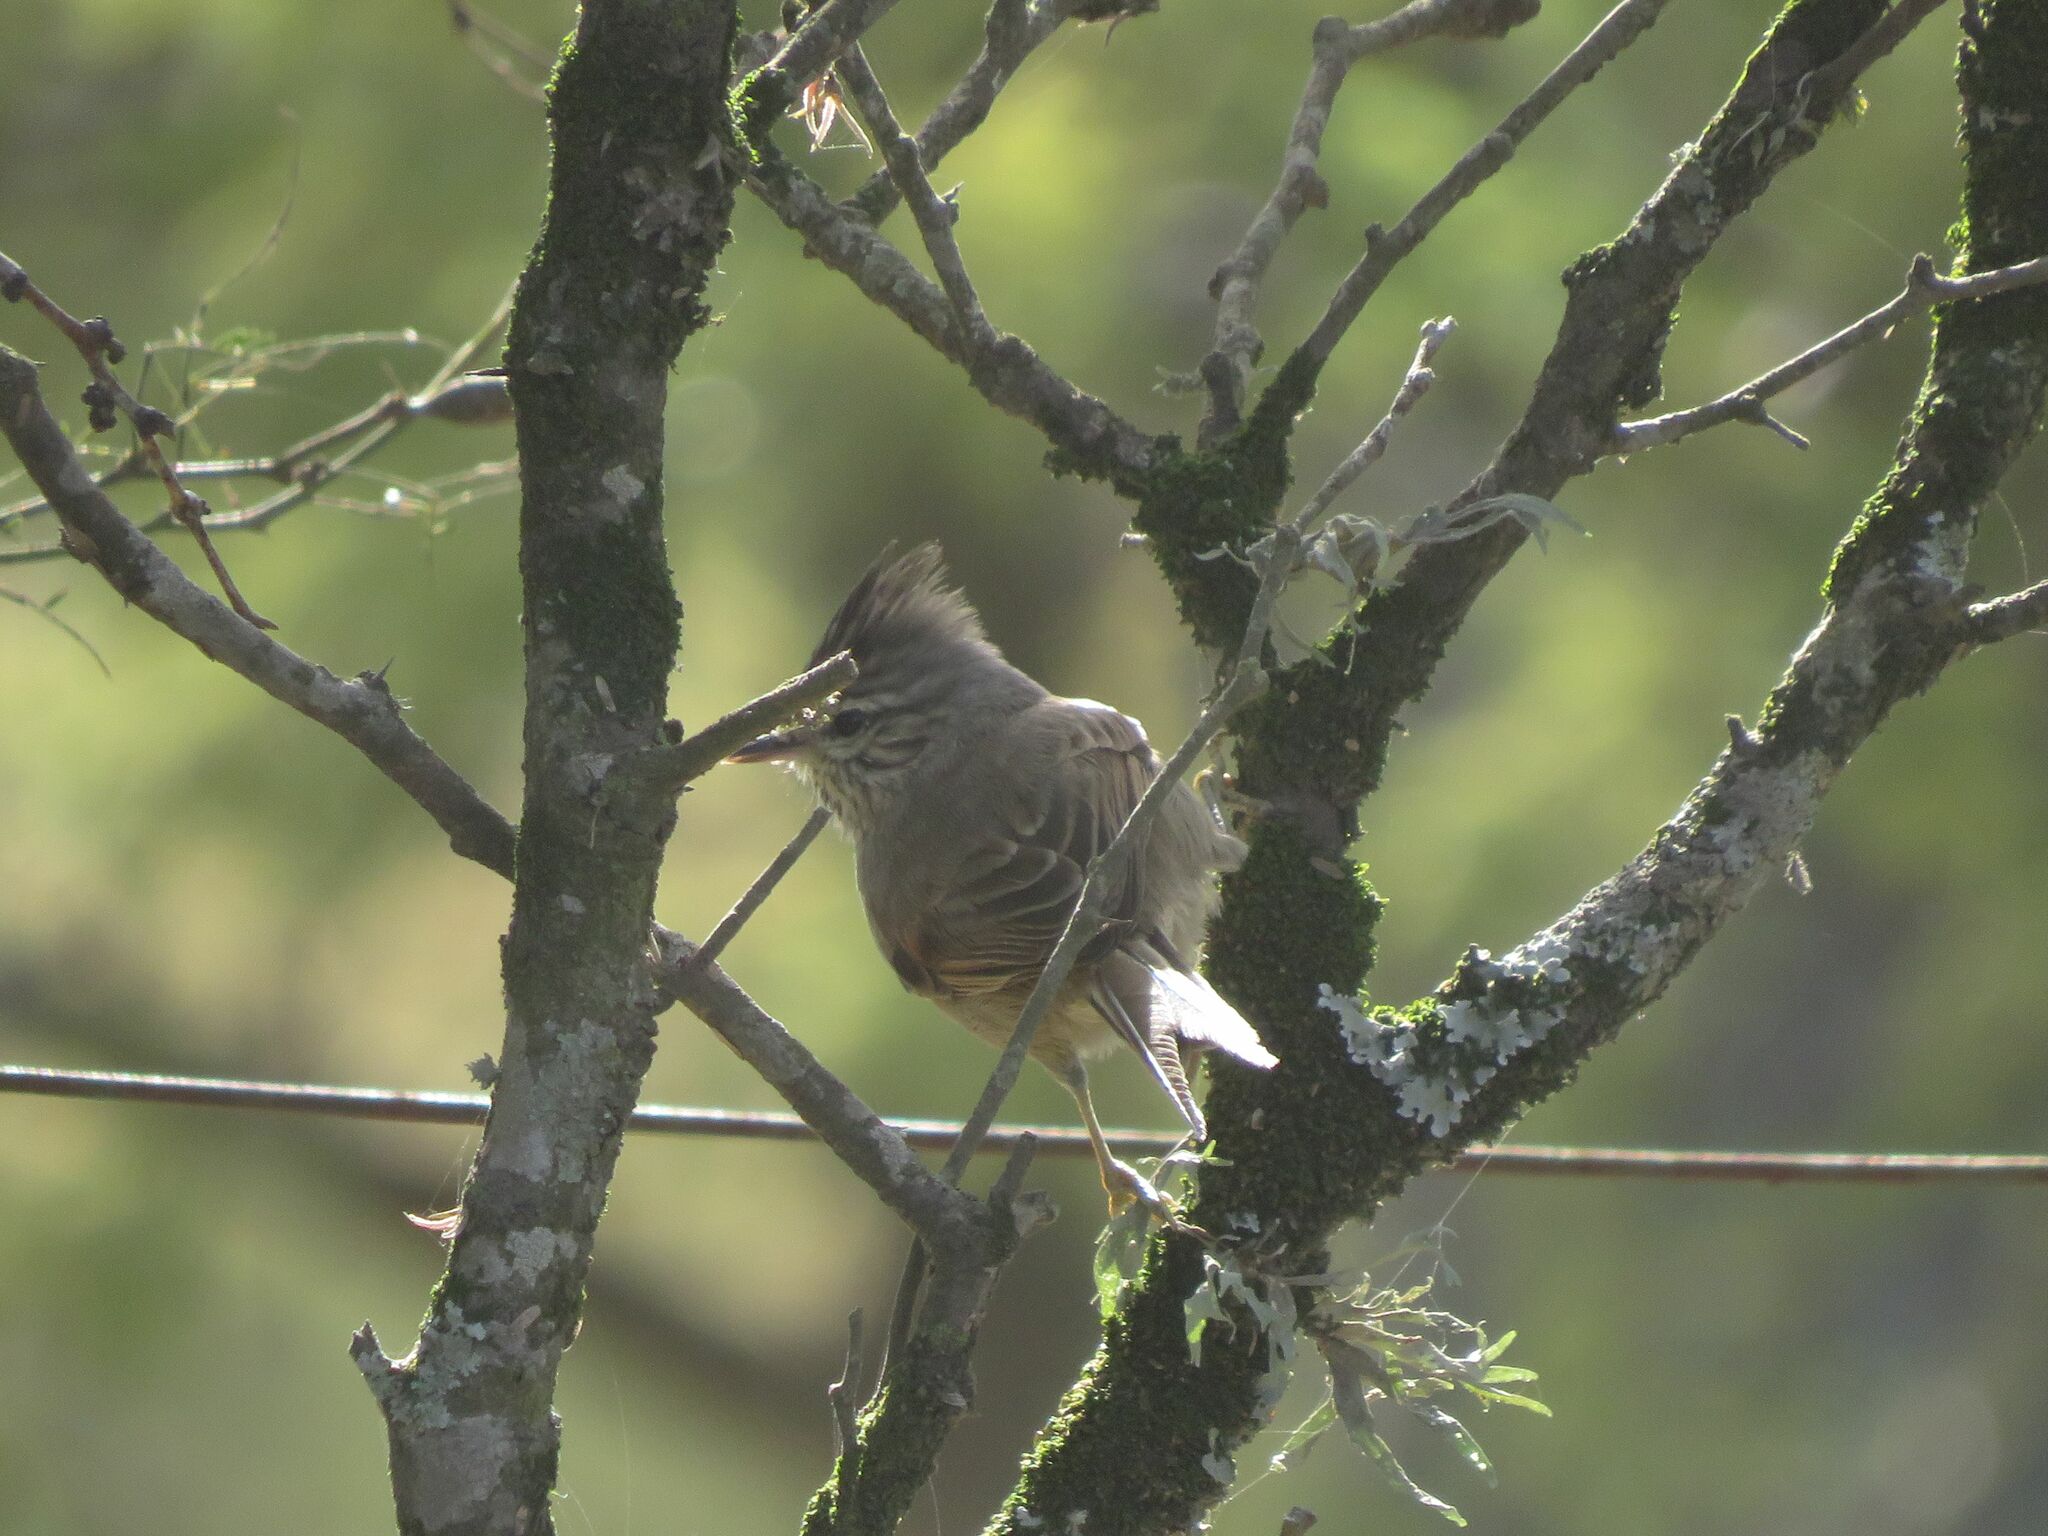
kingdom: Animalia
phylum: Chordata
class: Aves
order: Passeriformes
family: Furnariidae
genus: Leptasthenura
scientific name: Leptasthenura platensis
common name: Tufted tit-spinetail
